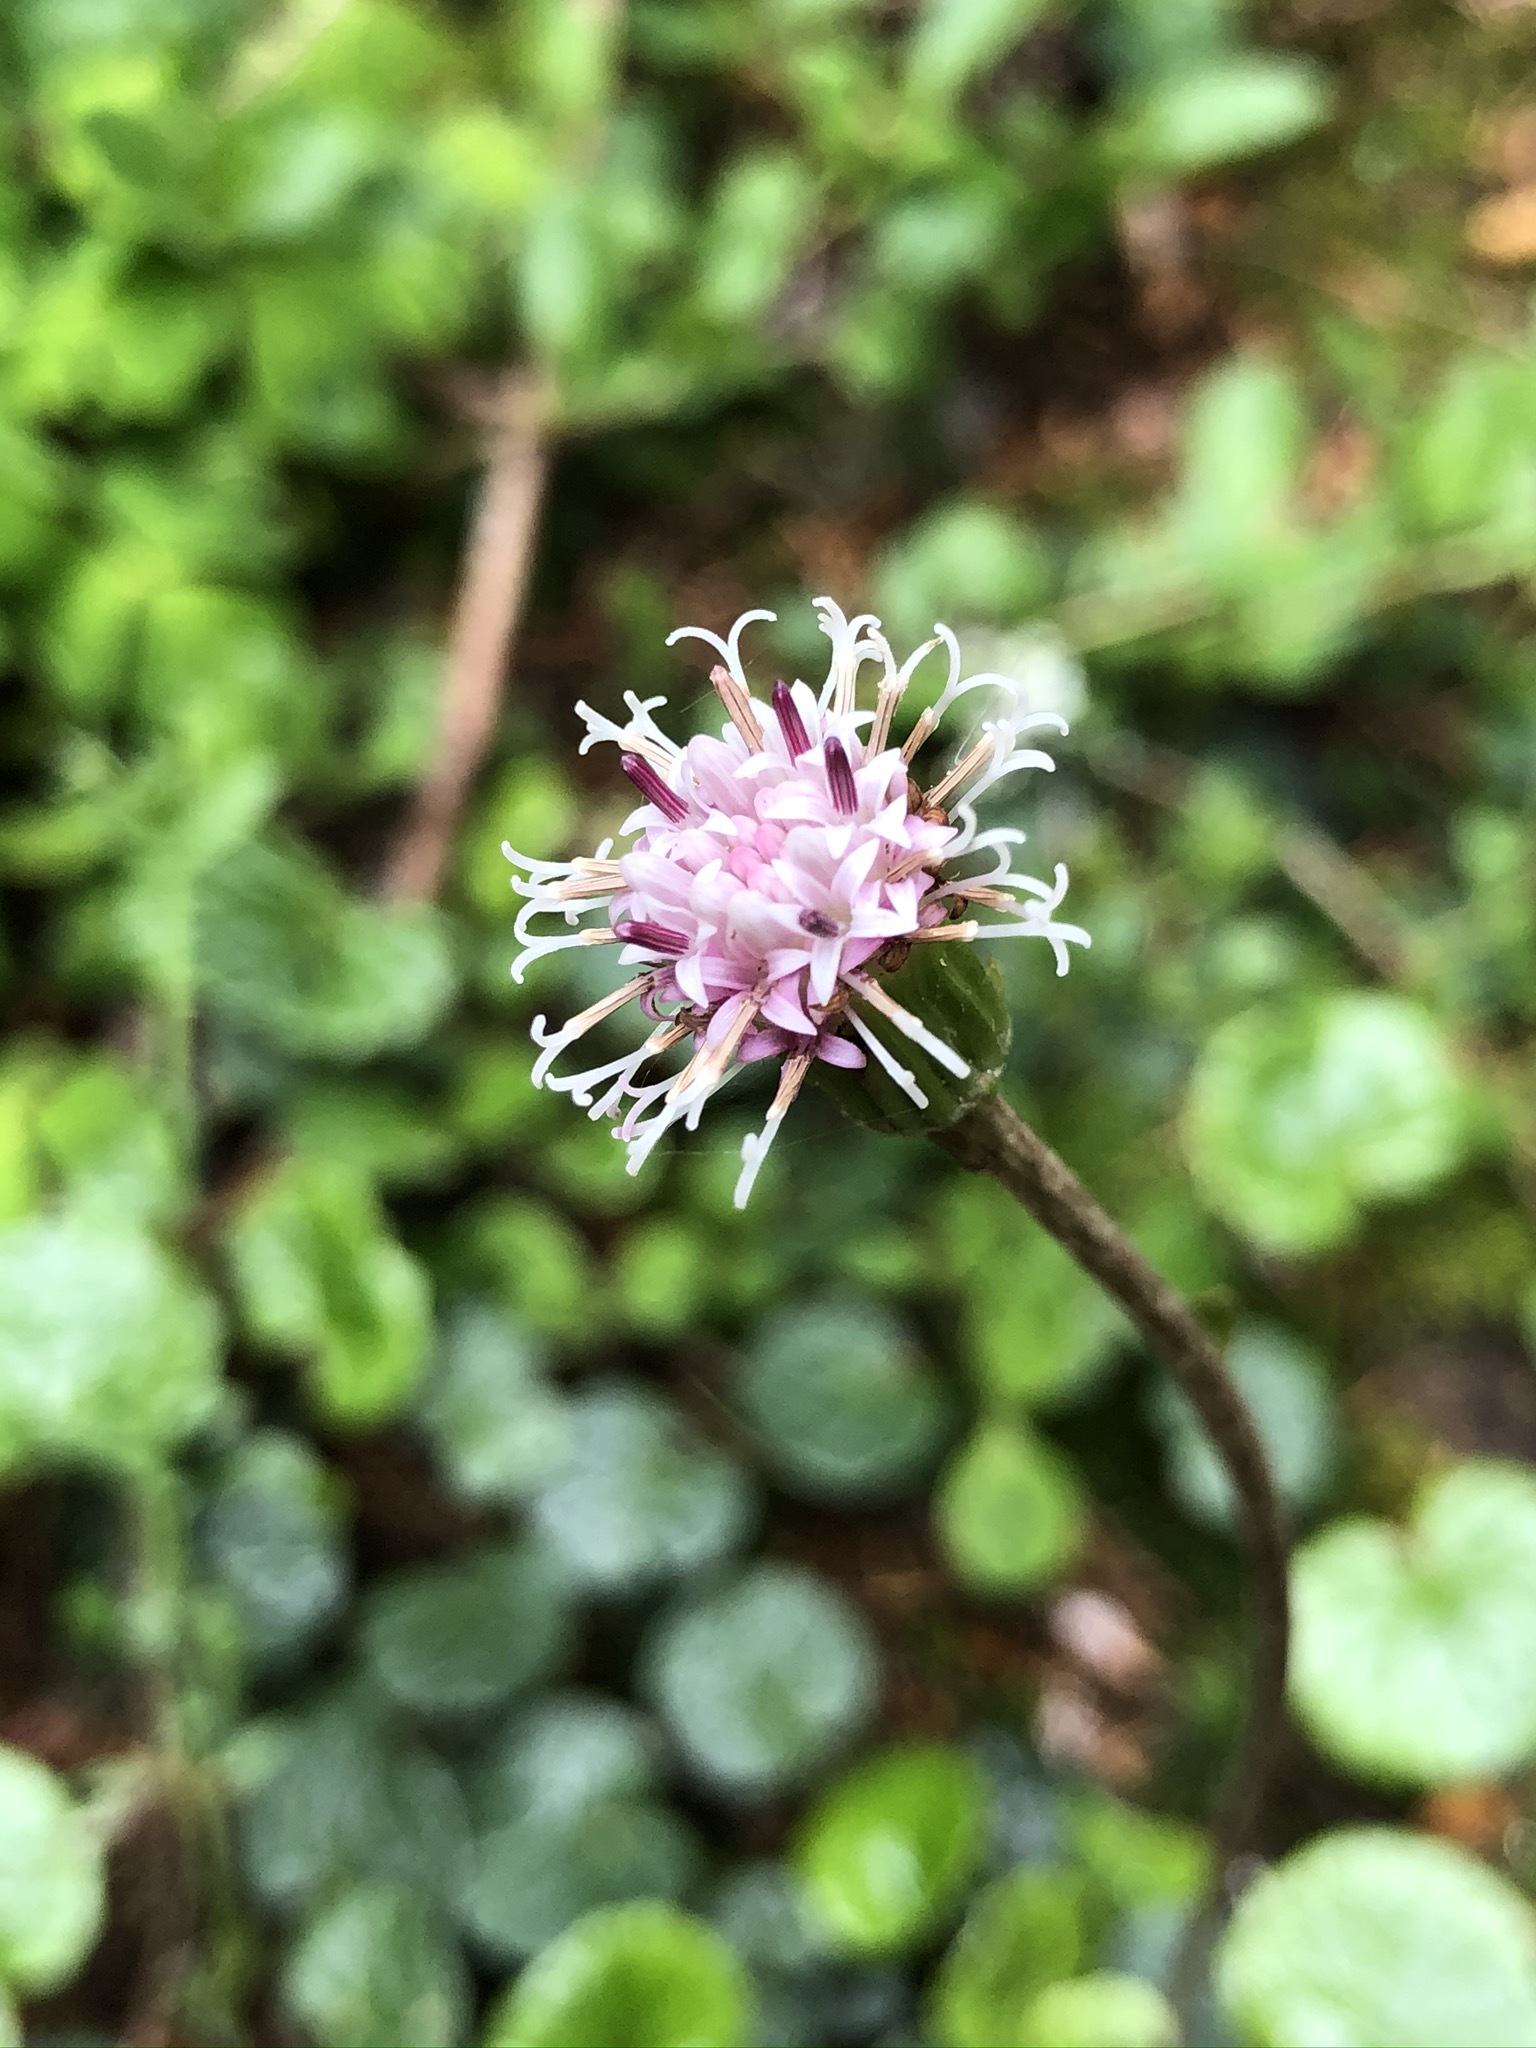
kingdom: Plantae
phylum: Tracheophyta
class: Magnoliopsida
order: Asterales
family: Asteraceae
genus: Homogyne
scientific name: Homogyne alpina
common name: Purple colt's-foot
